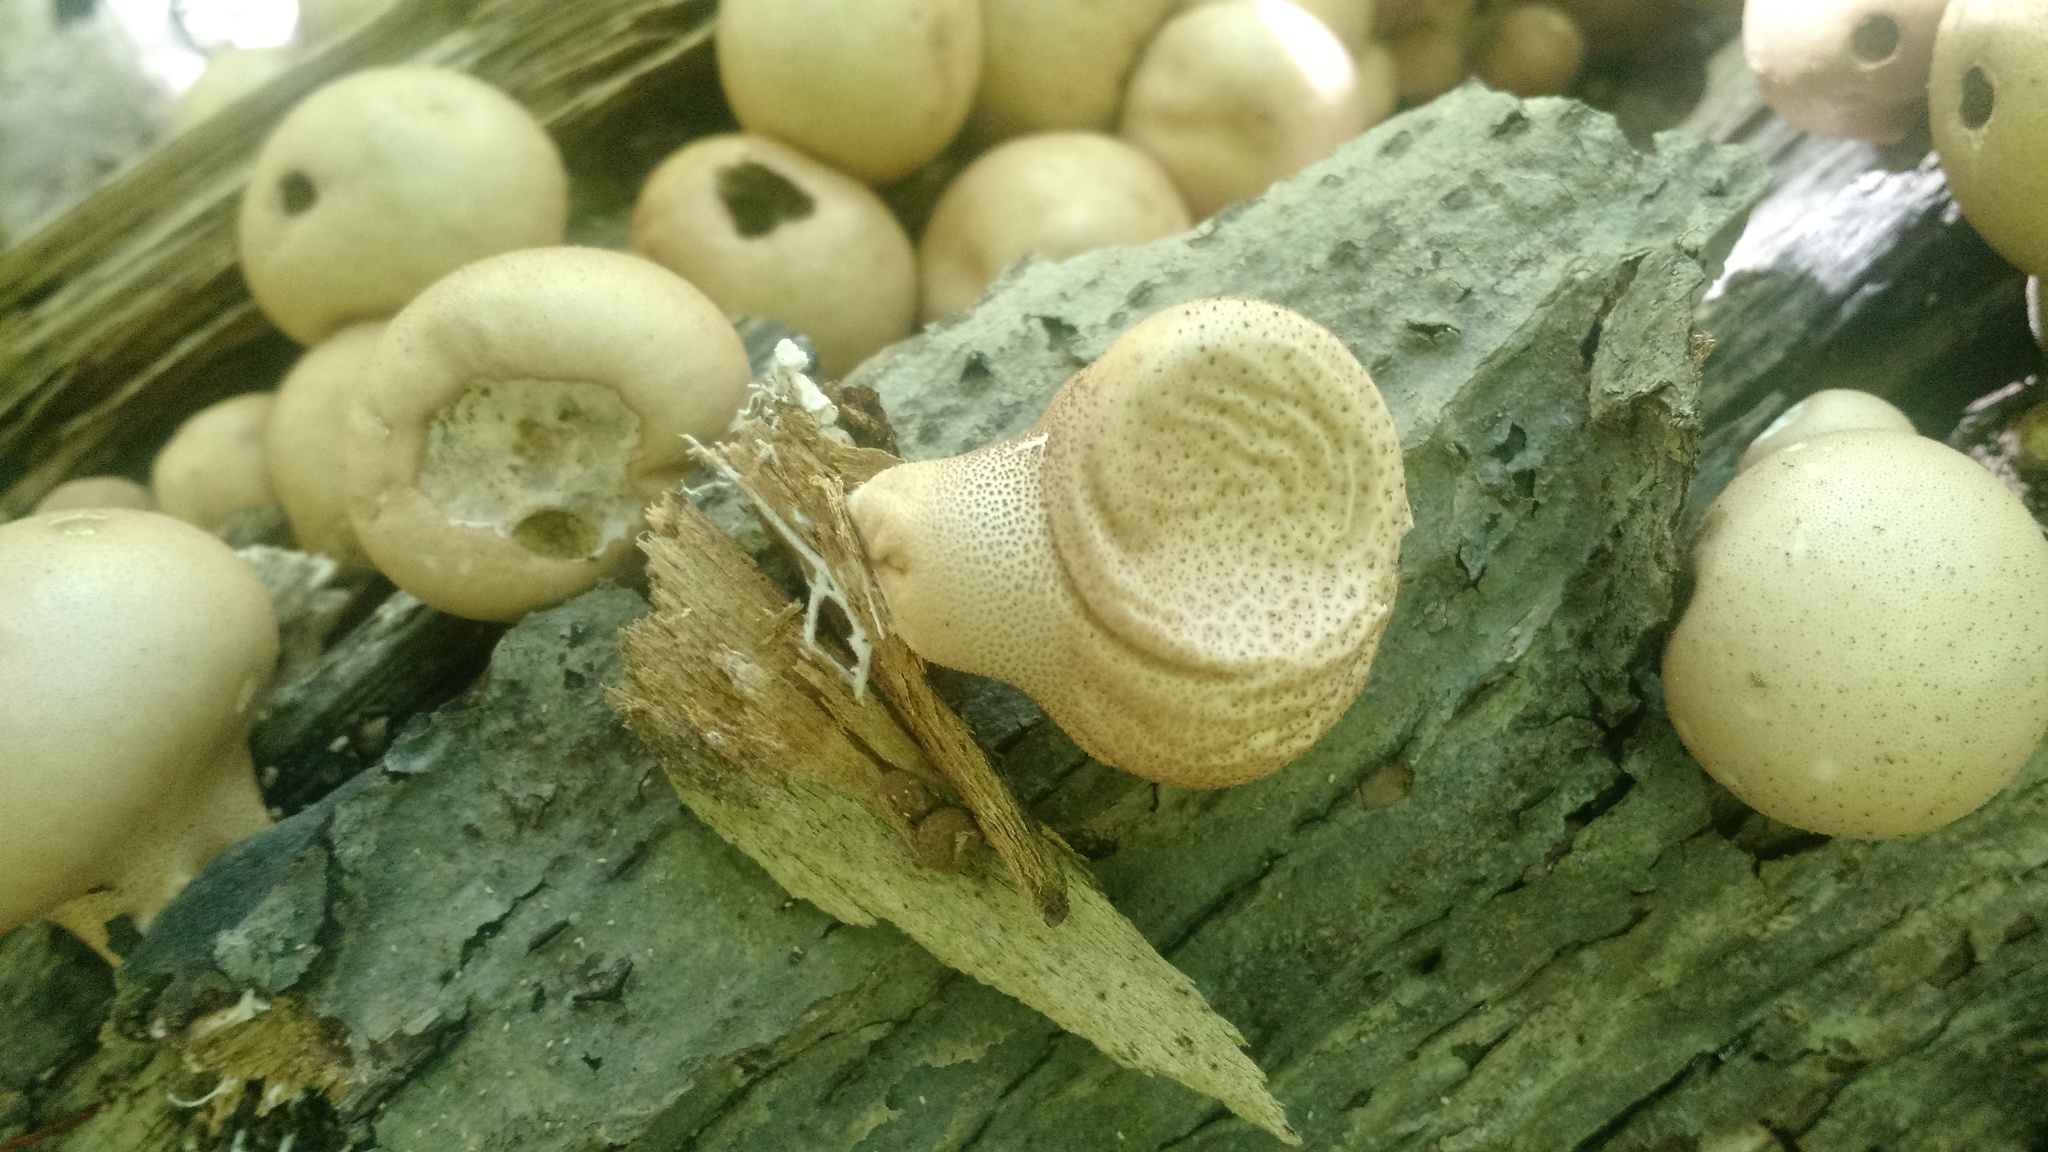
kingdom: Fungi
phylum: Basidiomycota
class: Agaricomycetes
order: Agaricales
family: Lycoperdaceae
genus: Apioperdon
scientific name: Apioperdon pyriforme
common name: Pear-shaped puffball
